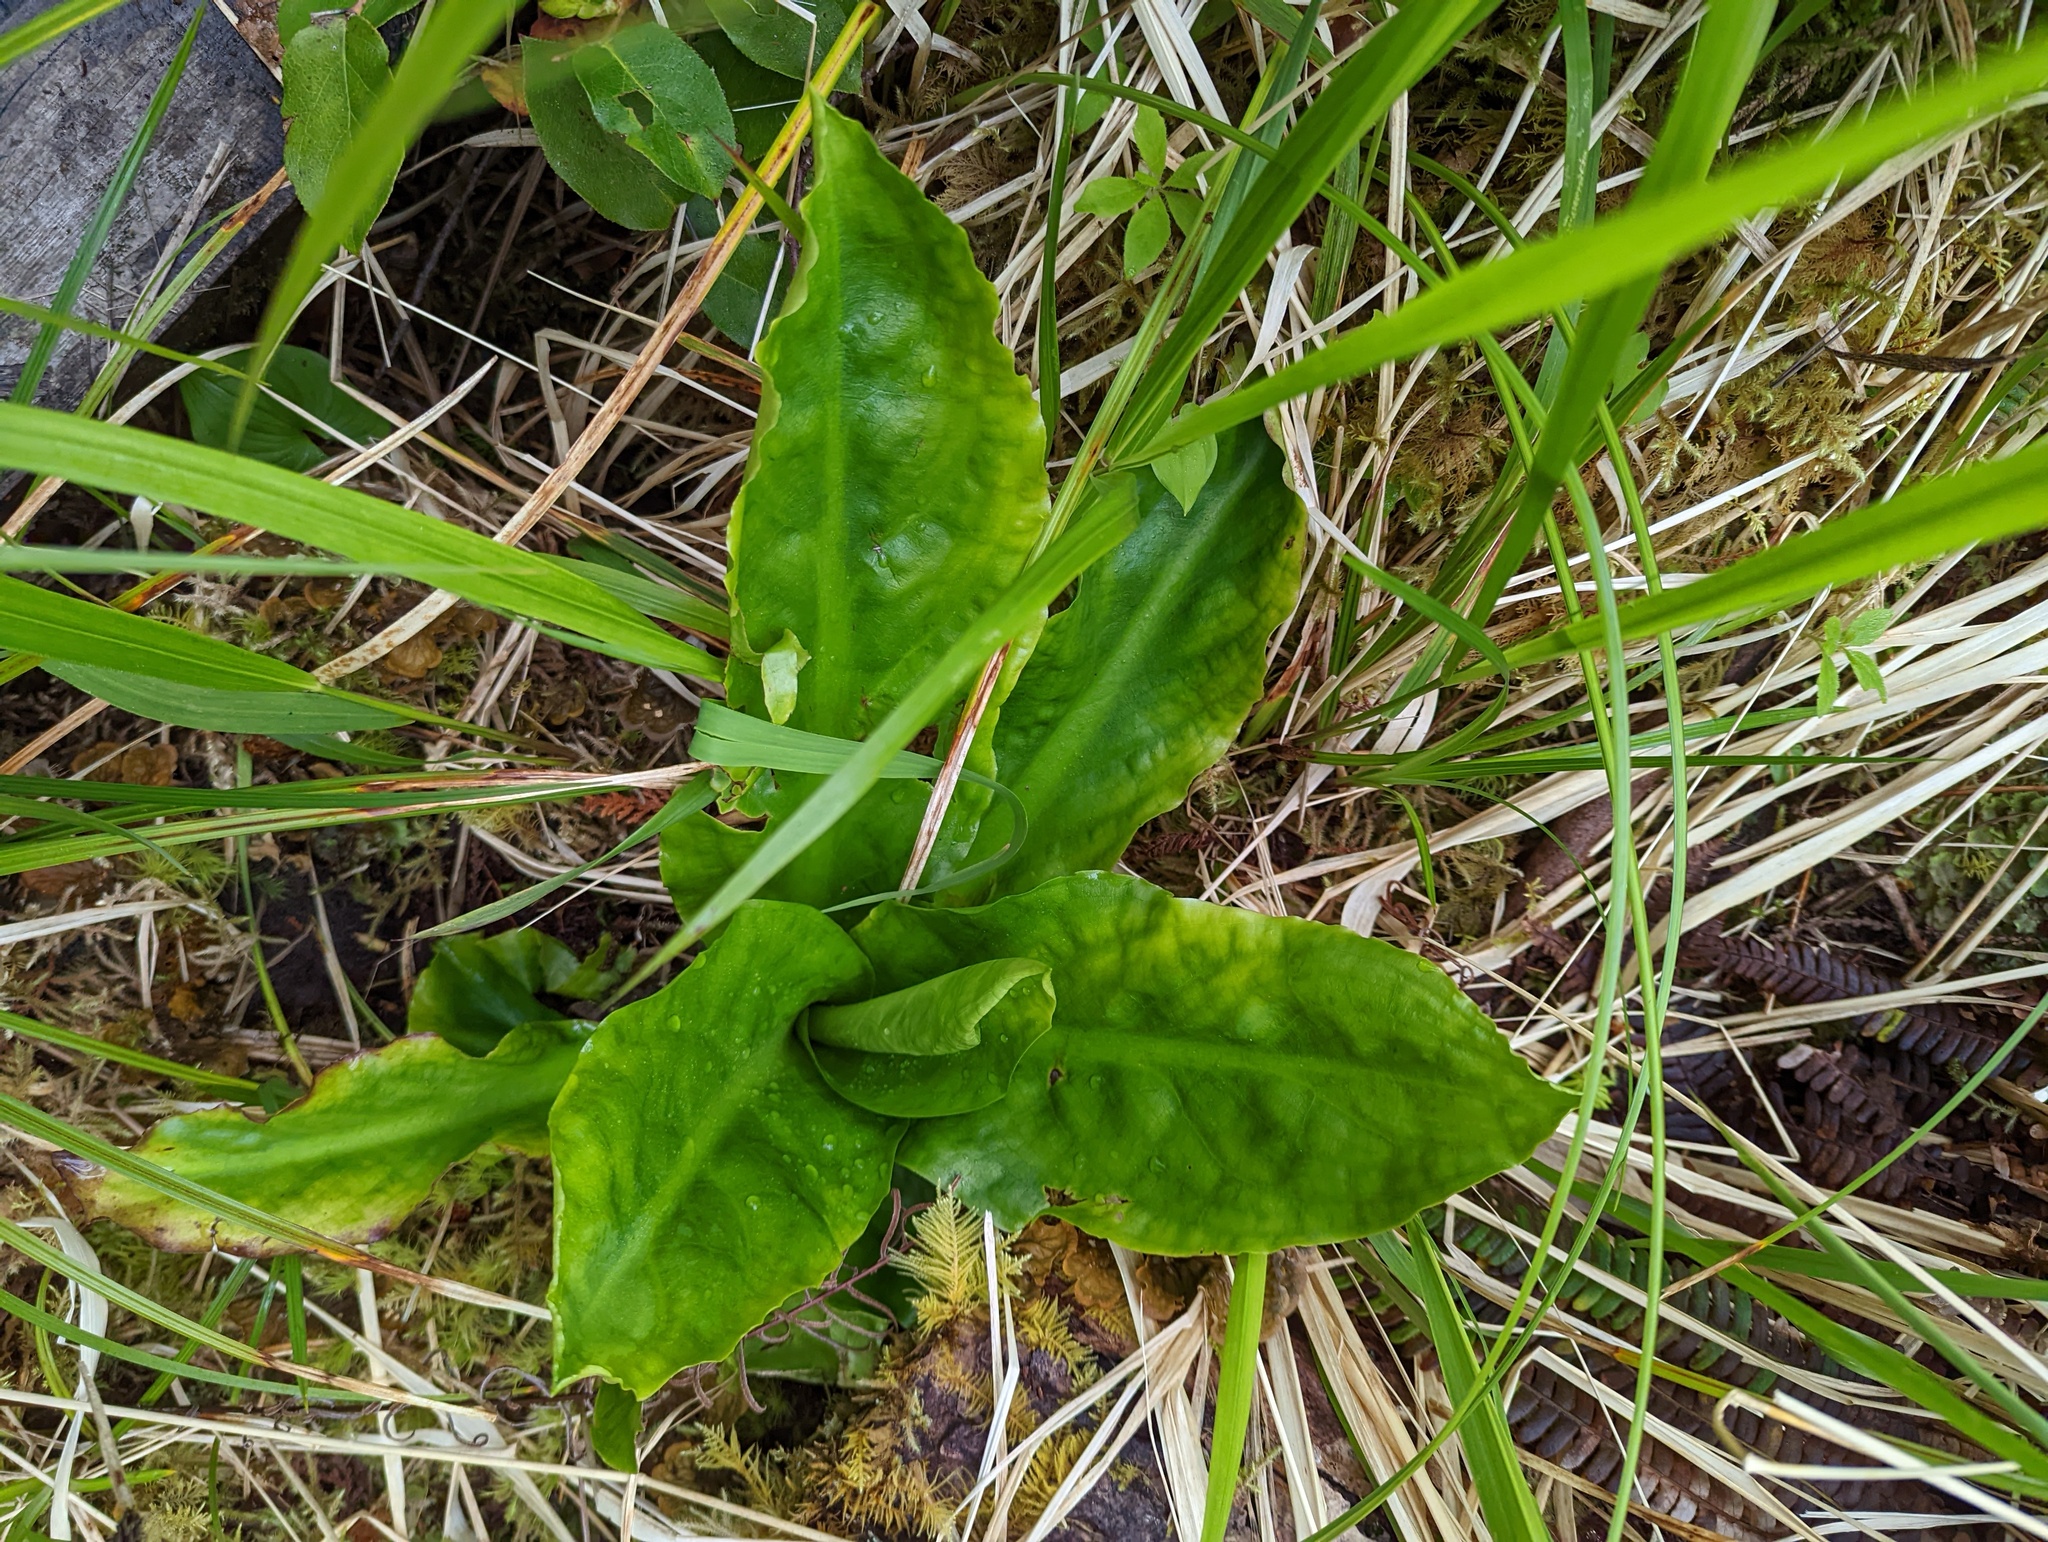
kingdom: Plantae
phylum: Tracheophyta
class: Liliopsida
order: Alismatales
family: Araceae
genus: Lysichiton
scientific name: Lysichiton americanus
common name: American skunk cabbage
